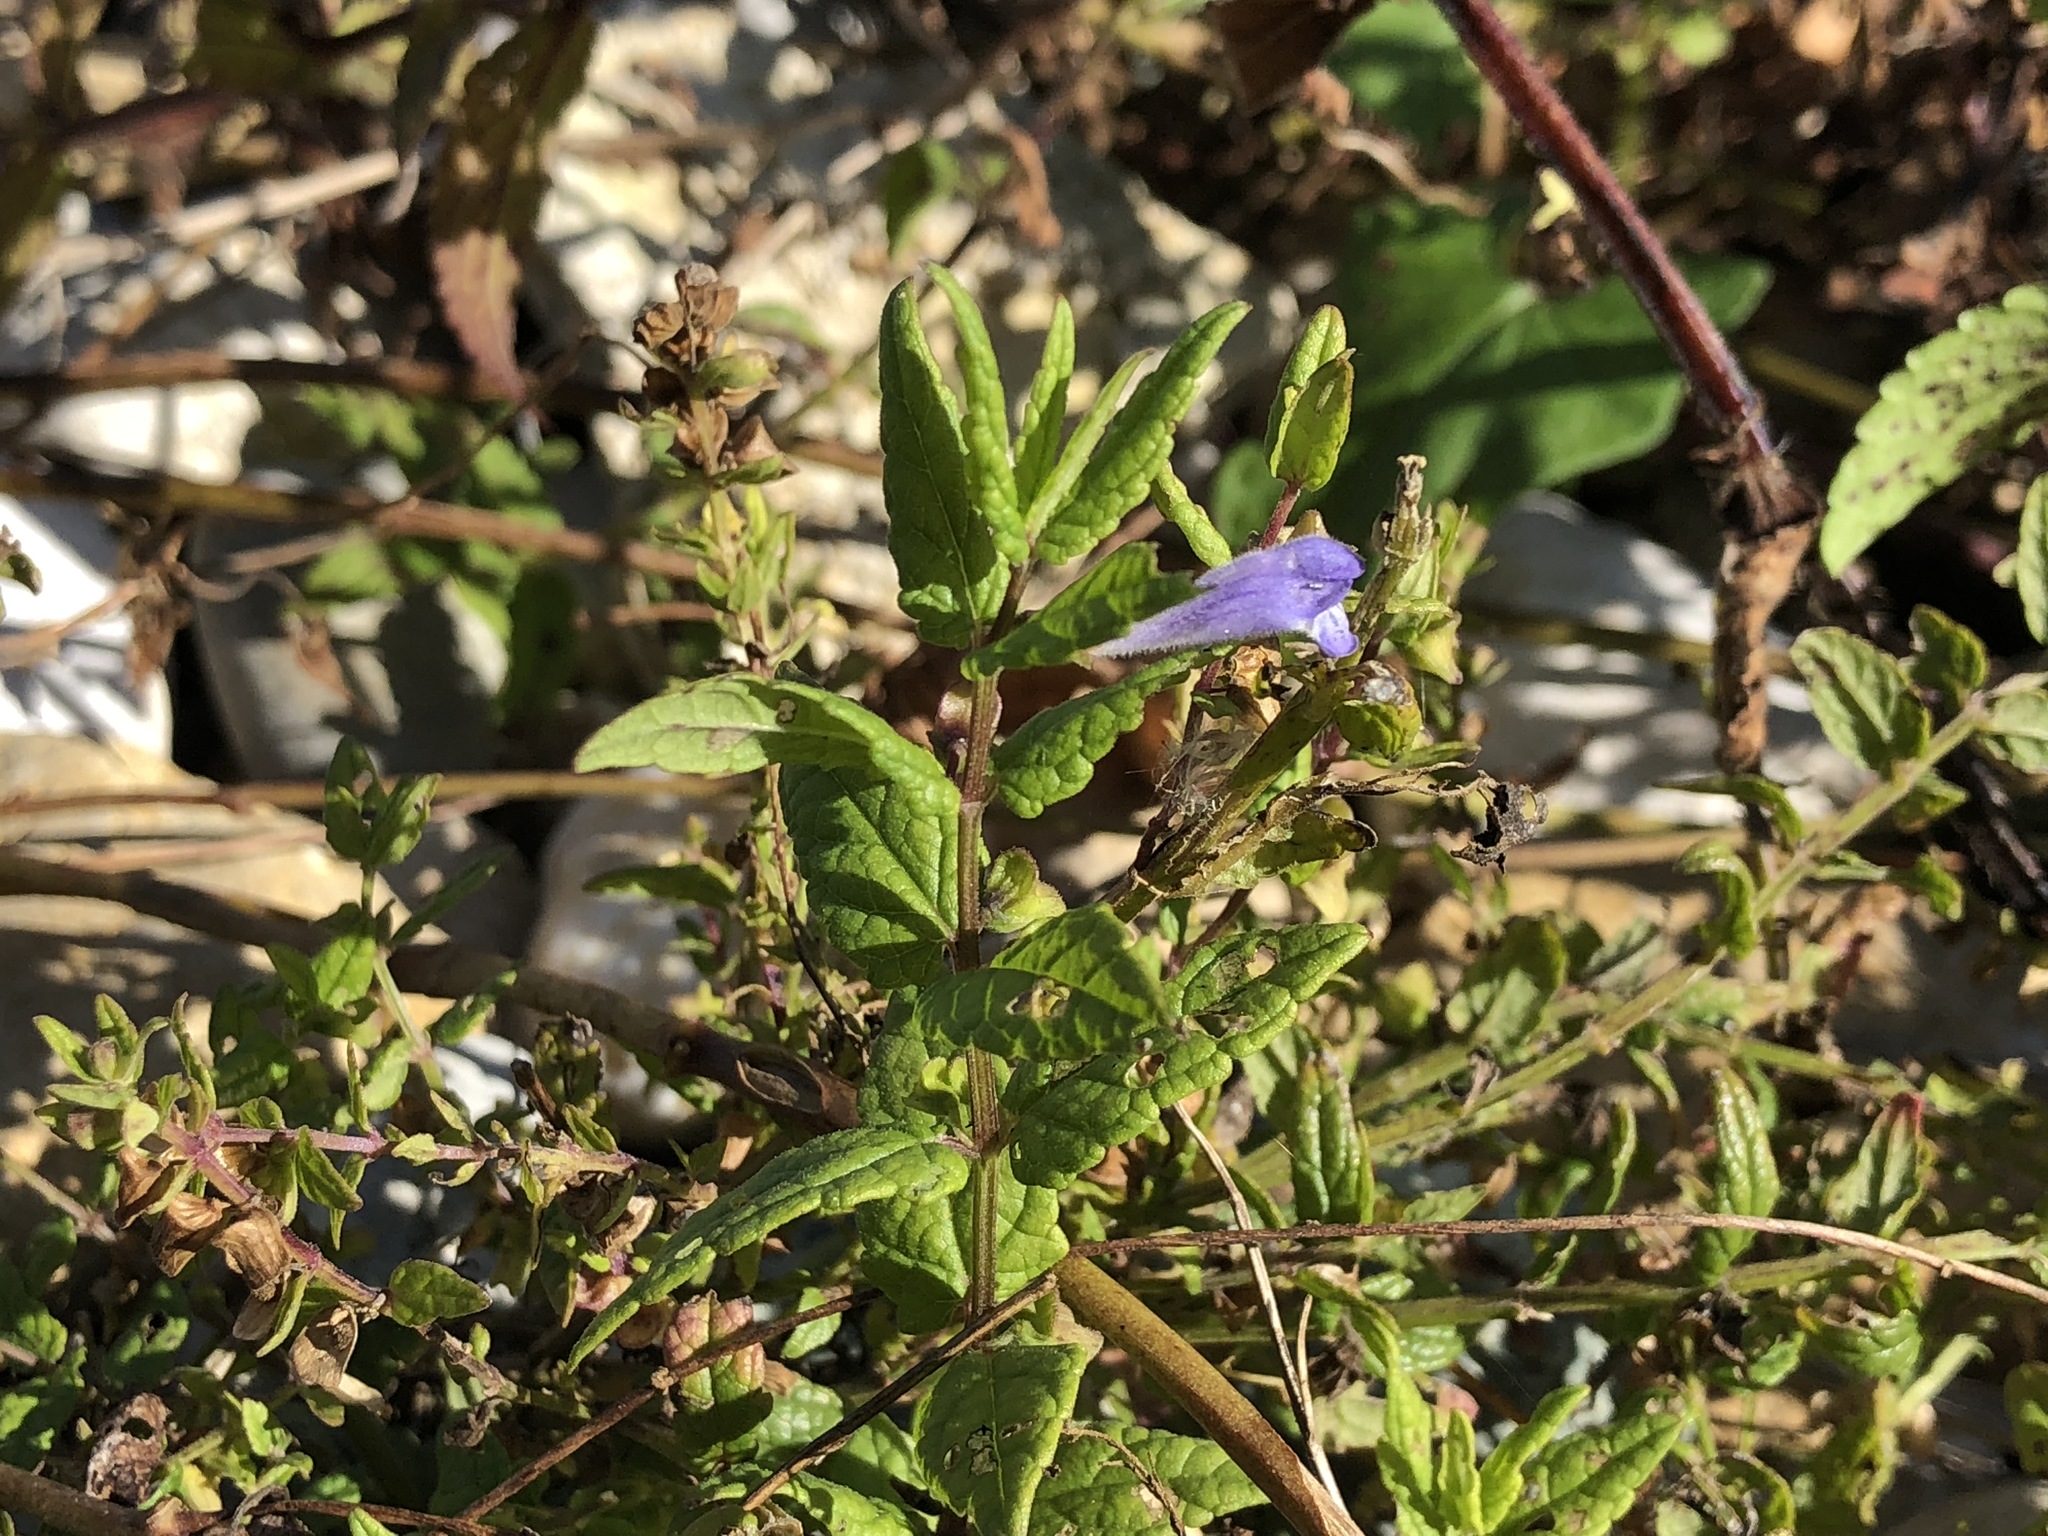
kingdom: Plantae
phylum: Tracheophyta
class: Magnoliopsida
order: Lamiales
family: Lamiaceae
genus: Scutellaria
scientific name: Scutellaria galericulata
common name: Skullcap
